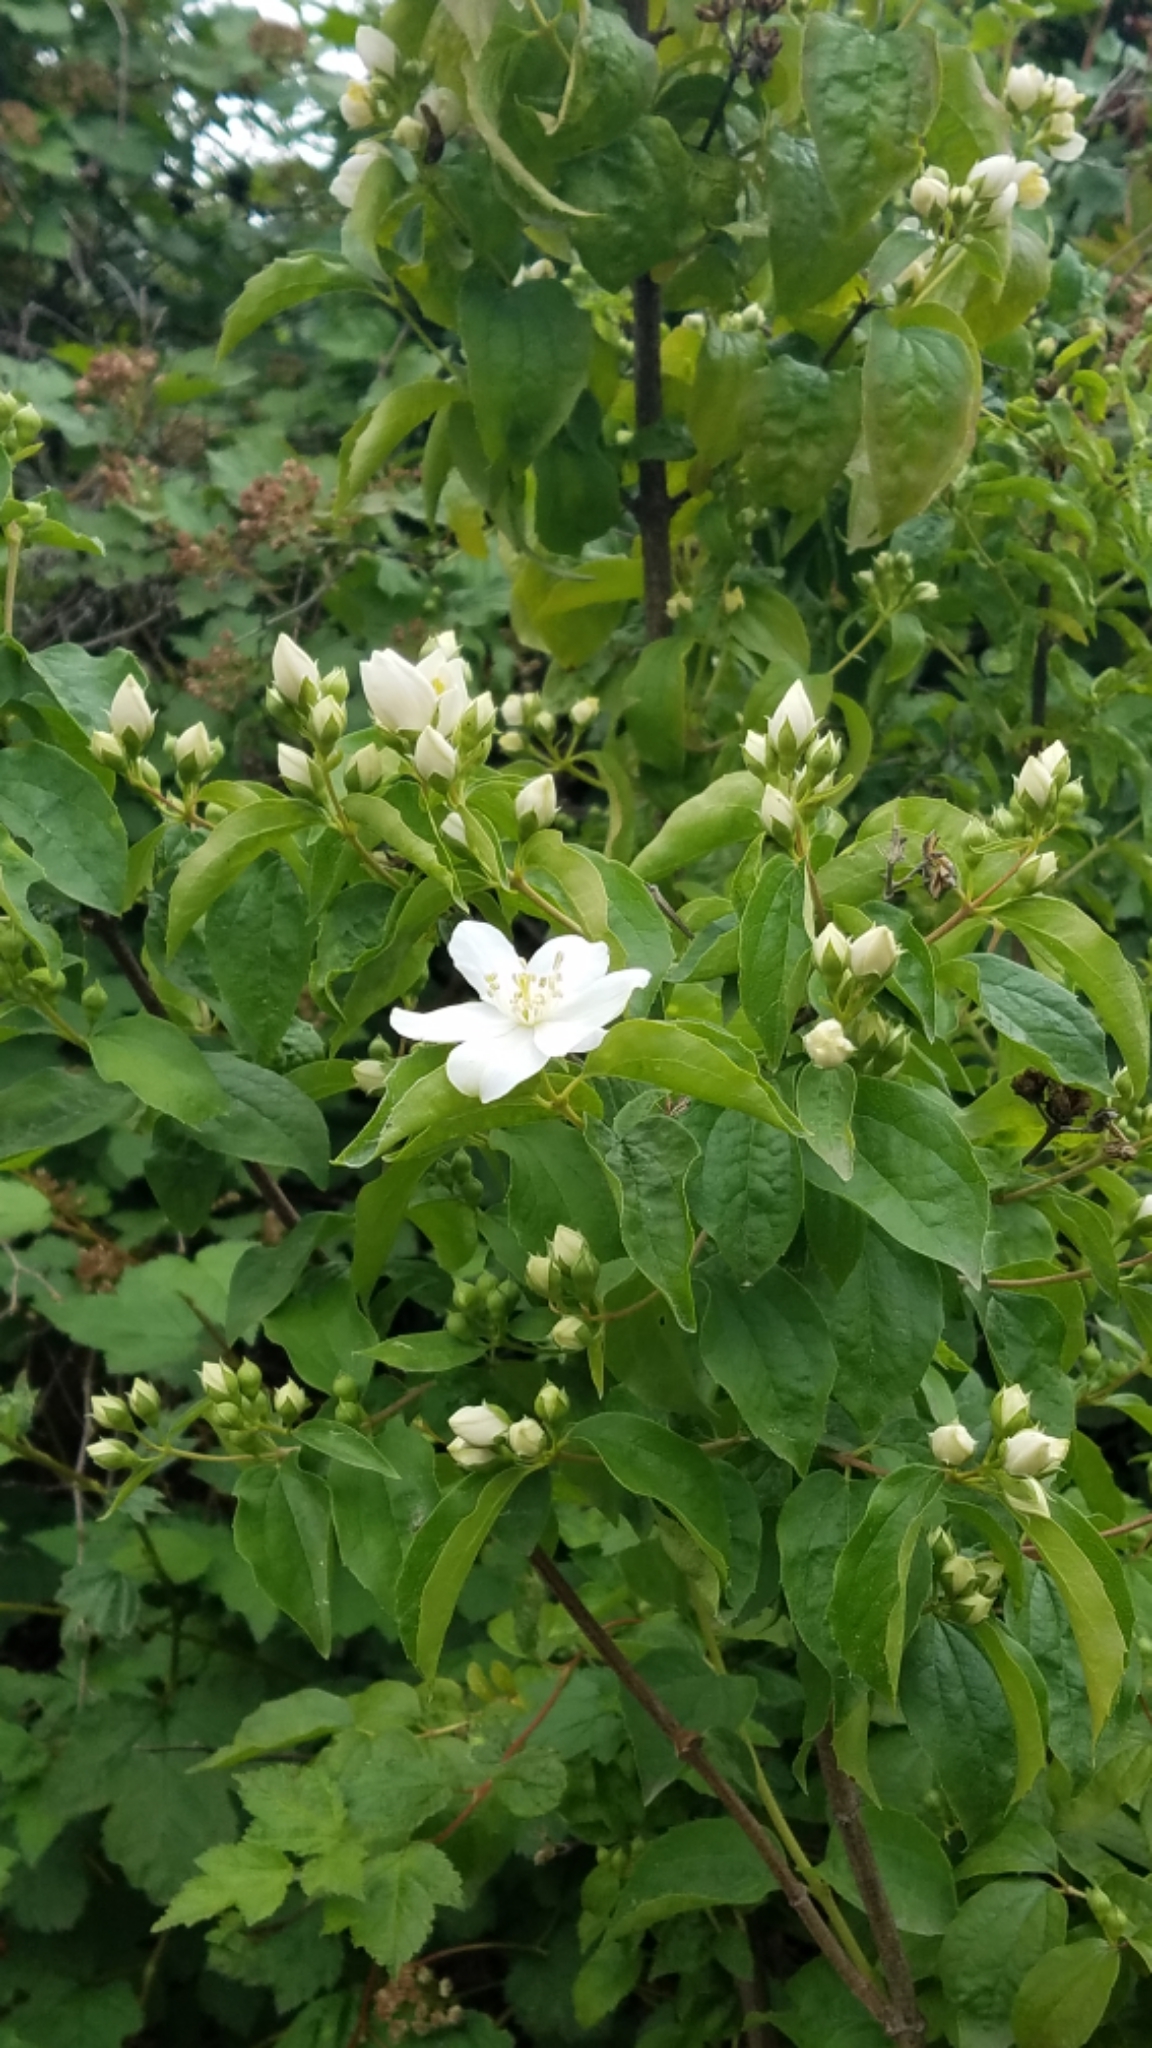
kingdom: Plantae
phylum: Tracheophyta
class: Magnoliopsida
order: Cornales
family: Hydrangeaceae
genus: Philadelphus
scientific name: Philadelphus lewisii
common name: Lewis's mock orange
